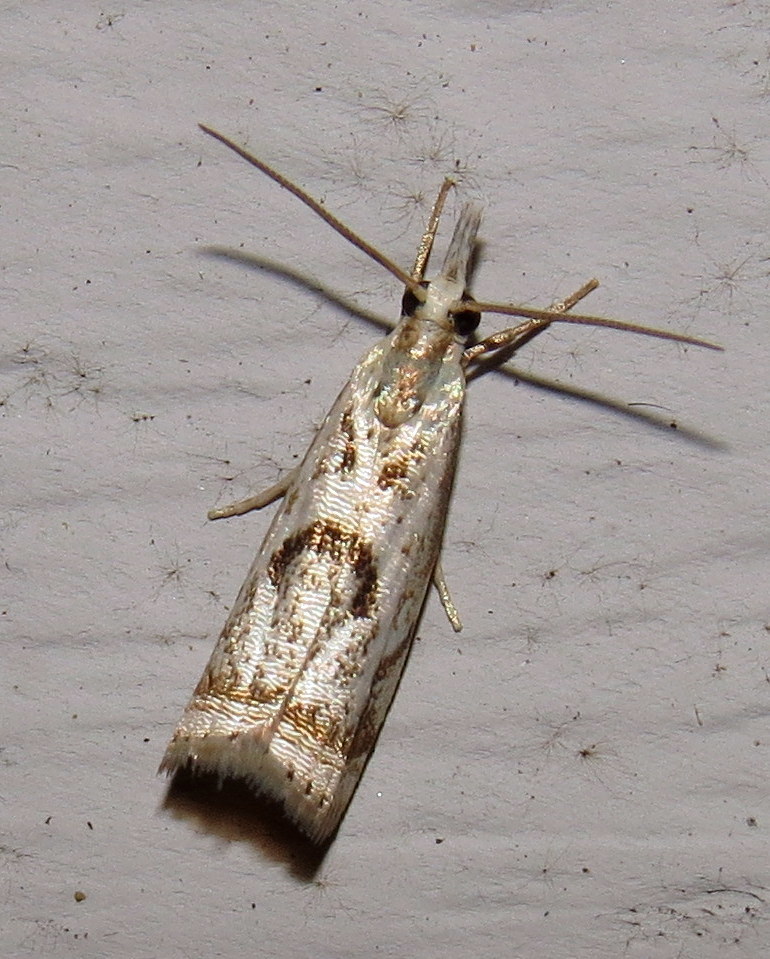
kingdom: Animalia
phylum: Arthropoda
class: Insecta
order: Lepidoptera
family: Crambidae
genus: Microcrambus
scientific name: Microcrambus elegans
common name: Elegant grass-veneer
